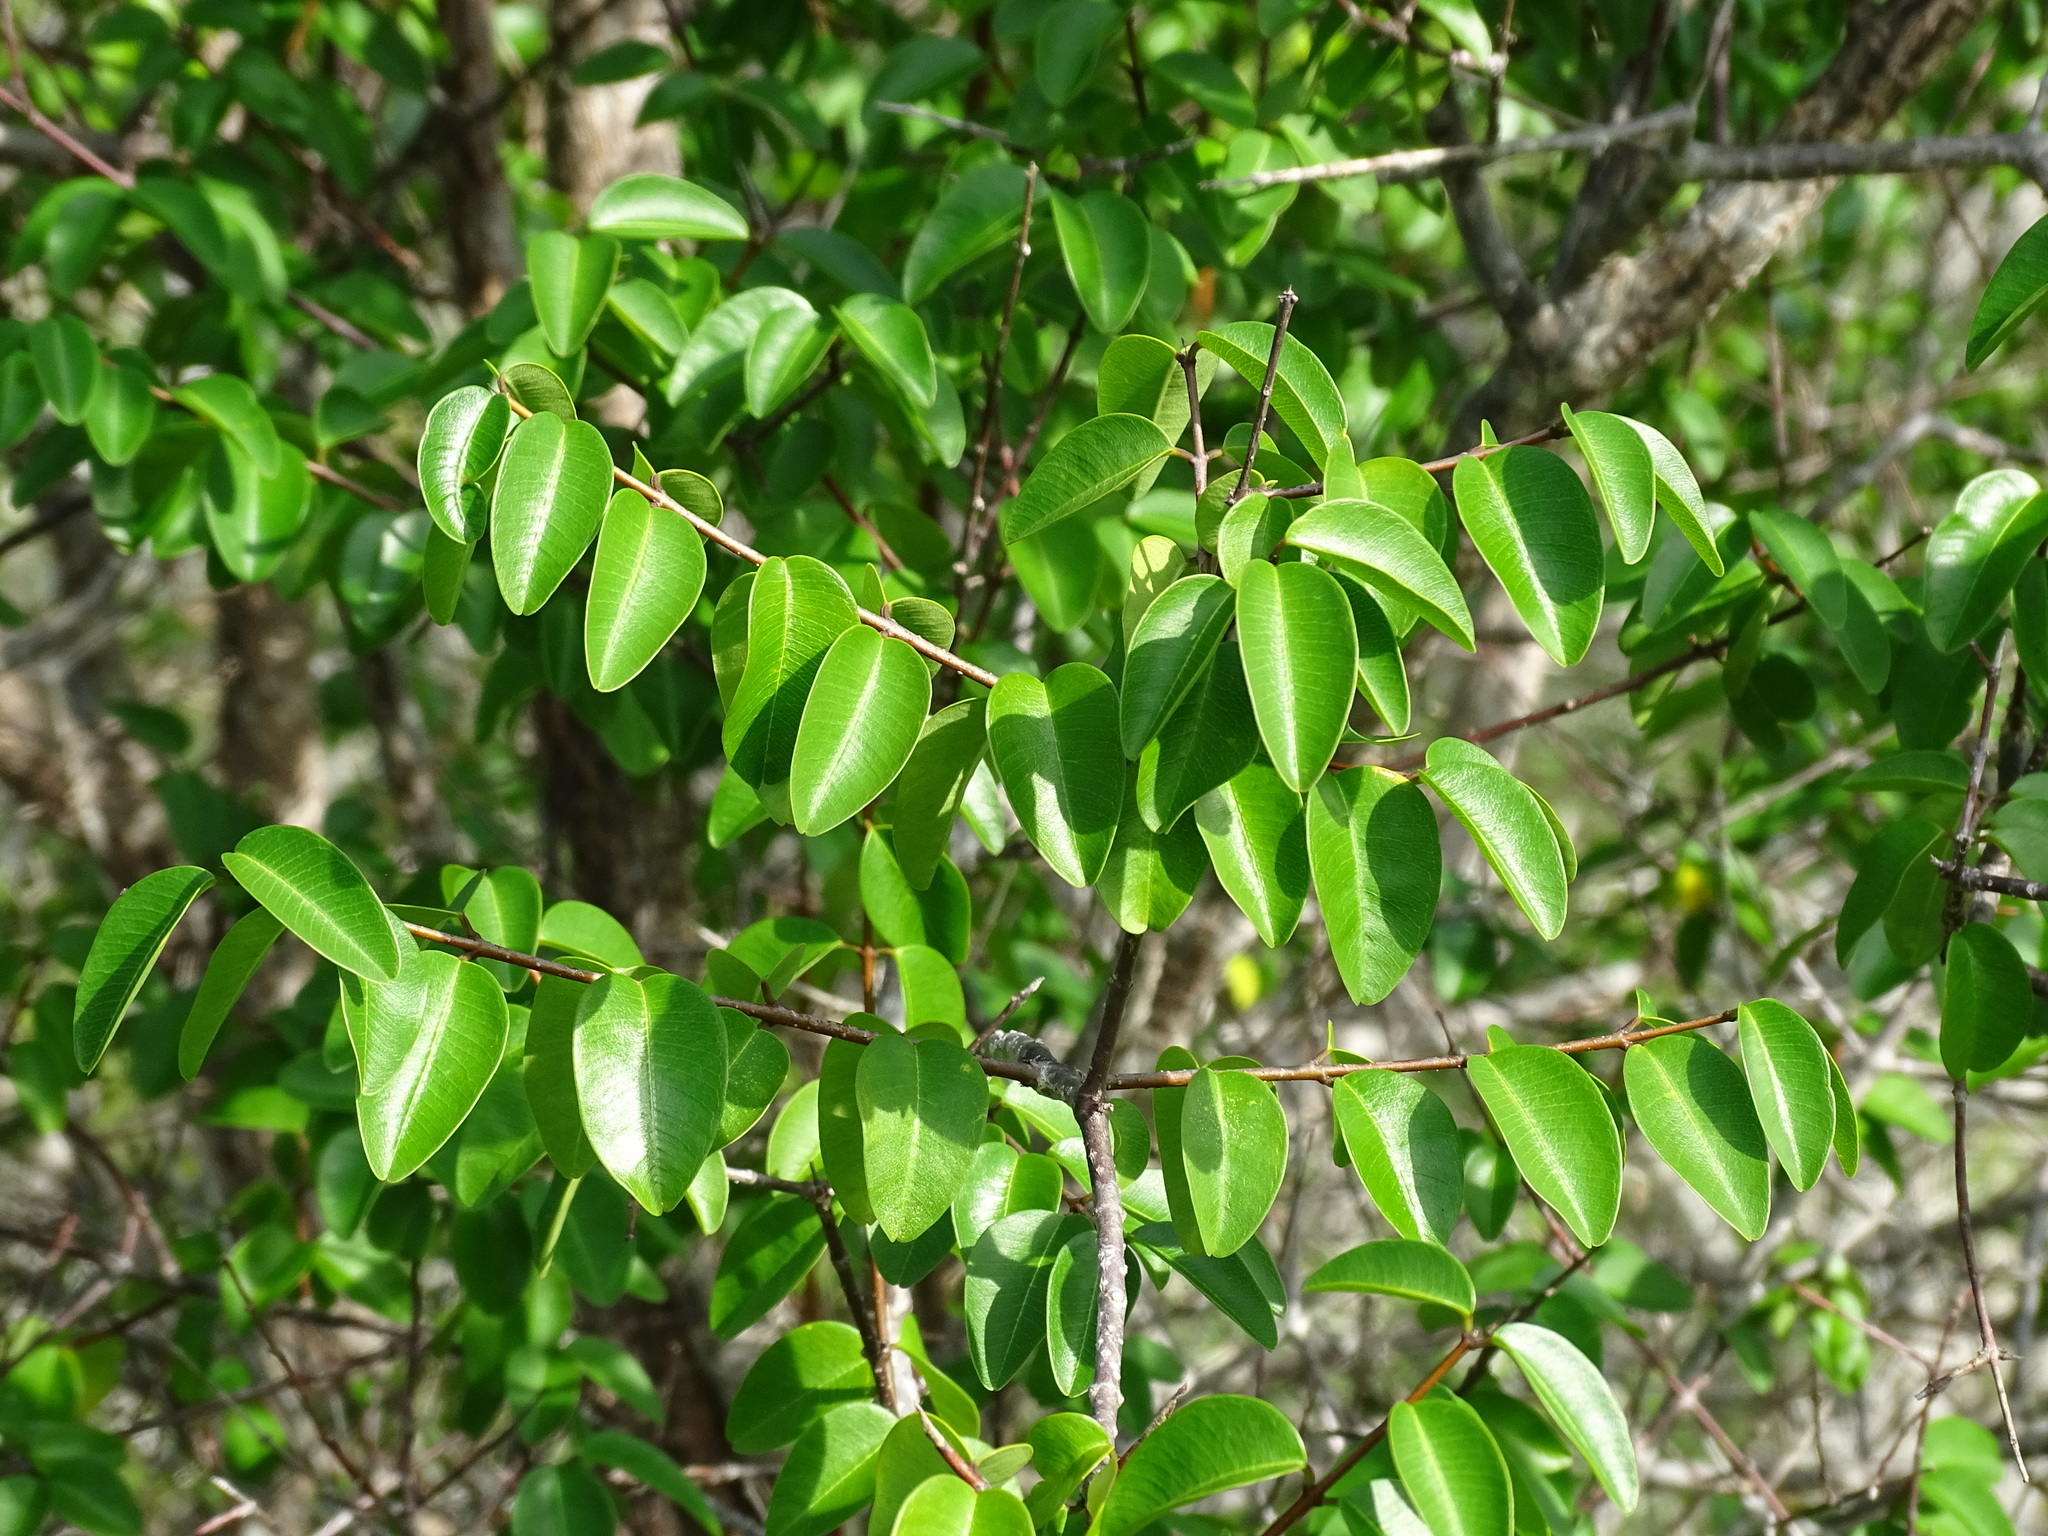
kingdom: Plantae
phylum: Tracheophyta
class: Magnoliopsida
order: Gentianales
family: Apocynaceae
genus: Cameraria
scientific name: Cameraria latifolia
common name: Savanna white poisonwood
